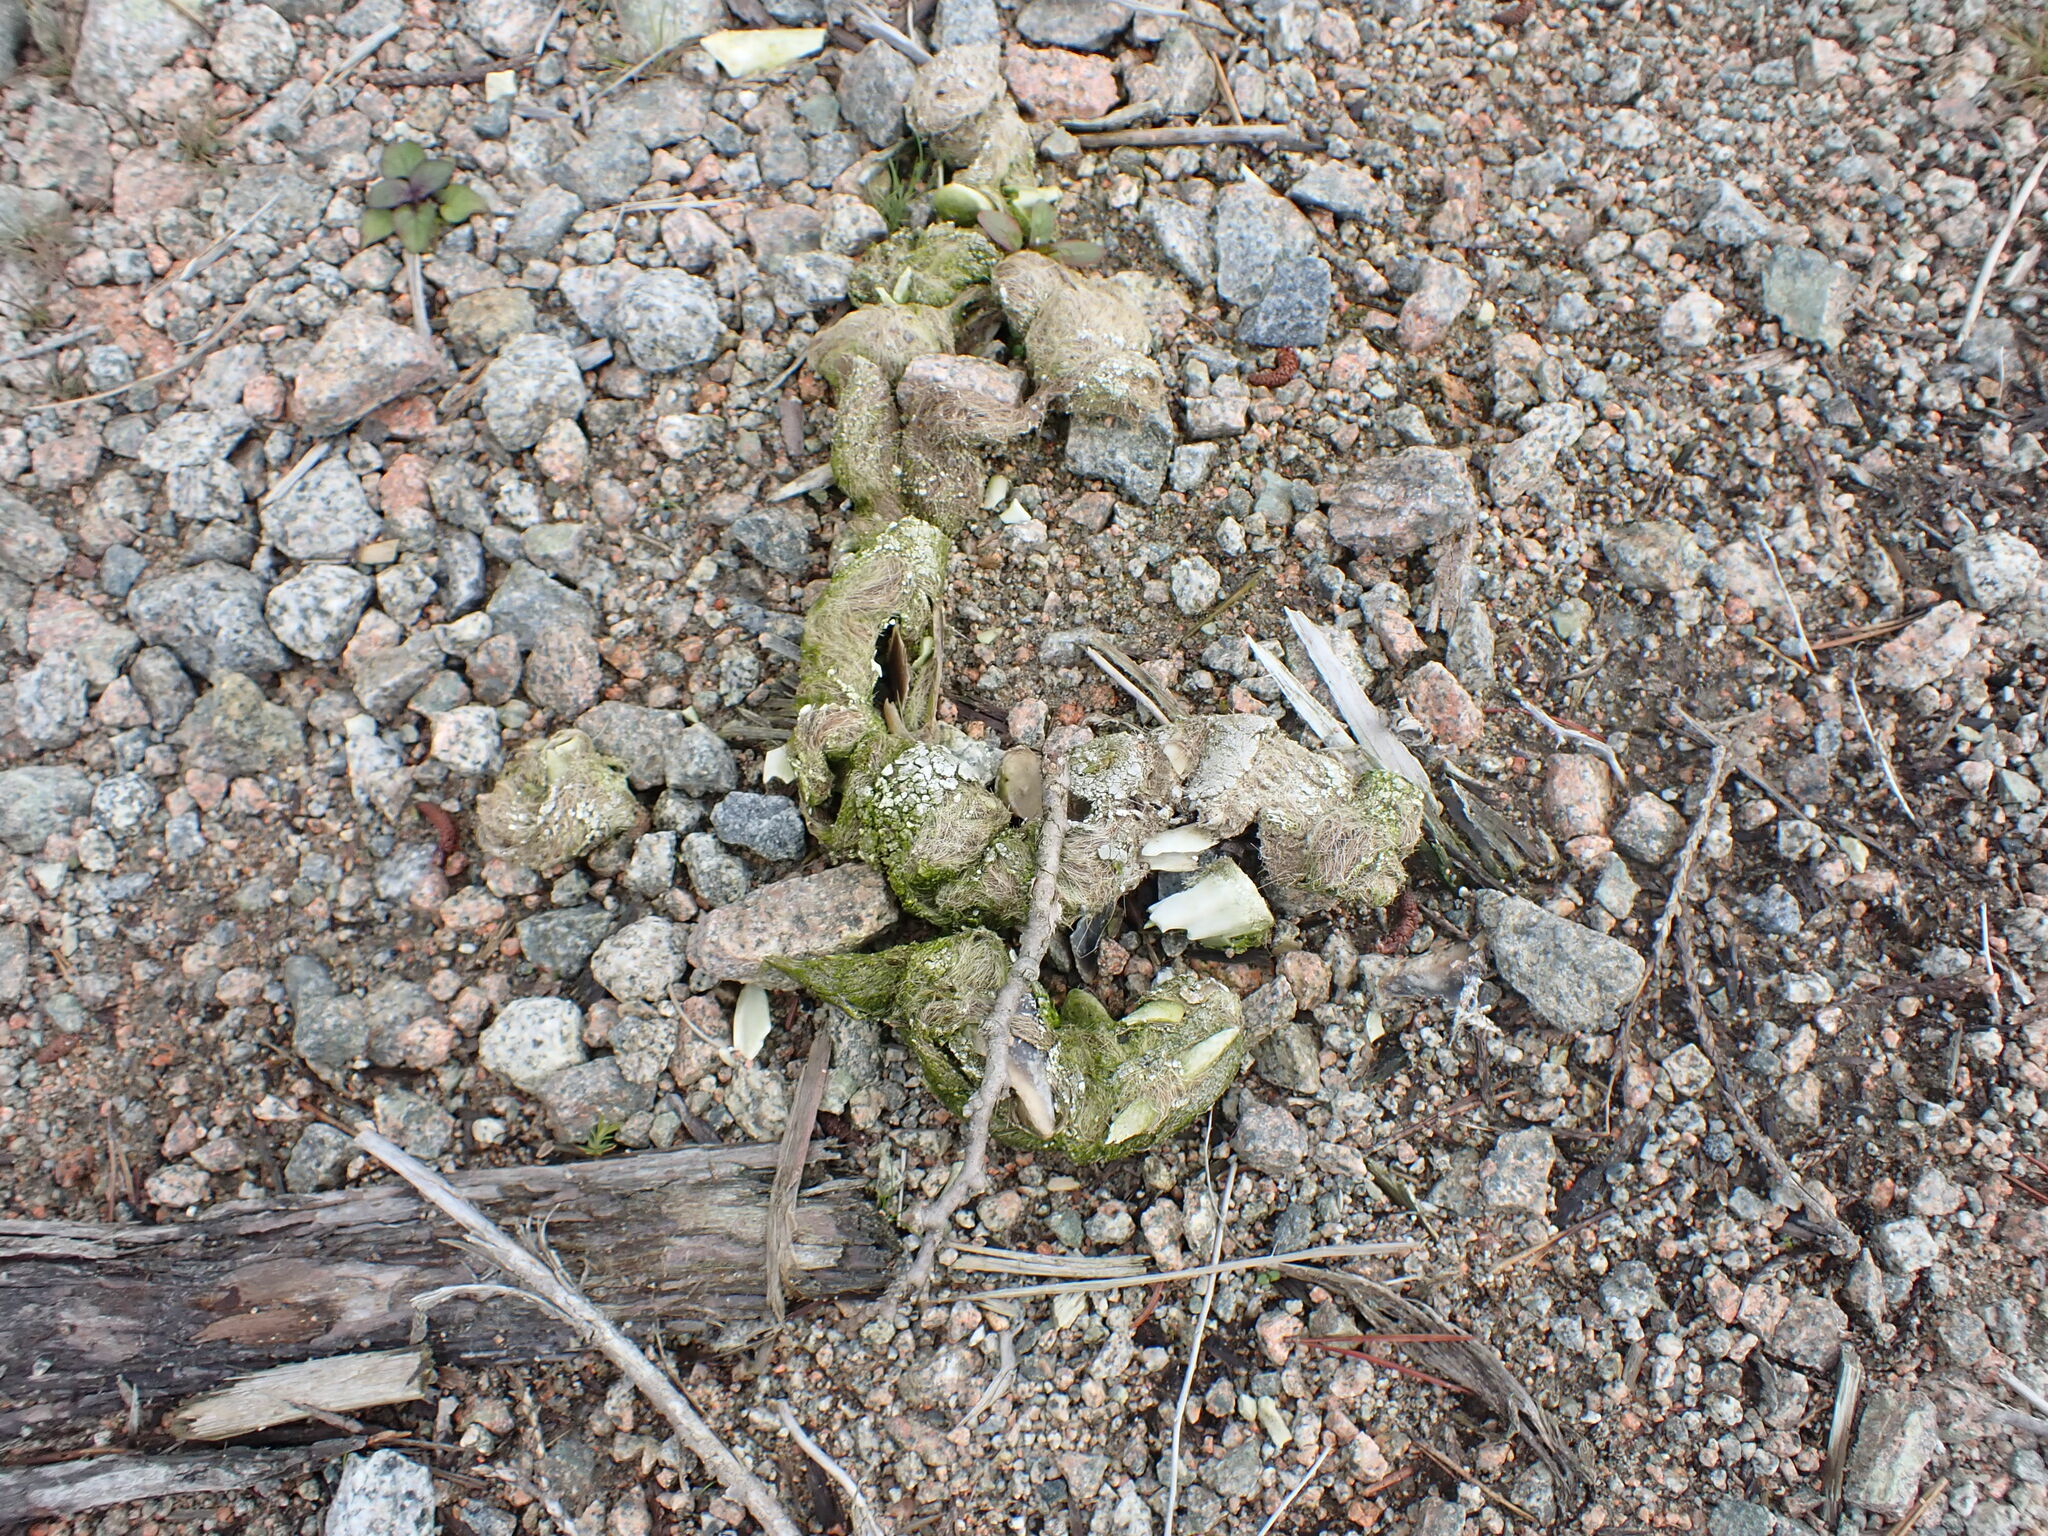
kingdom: Animalia
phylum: Chordata
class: Mammalia
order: Carnivora
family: Canidae
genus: Canis
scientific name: Canis lupus
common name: Gray wolf
